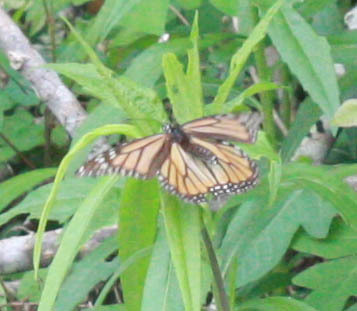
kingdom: Animalia
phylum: Arthropoda
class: Insecta
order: Lepidoptera
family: Nymphalidae
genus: Danaus
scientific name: Danaus plexippus
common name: Monarch
